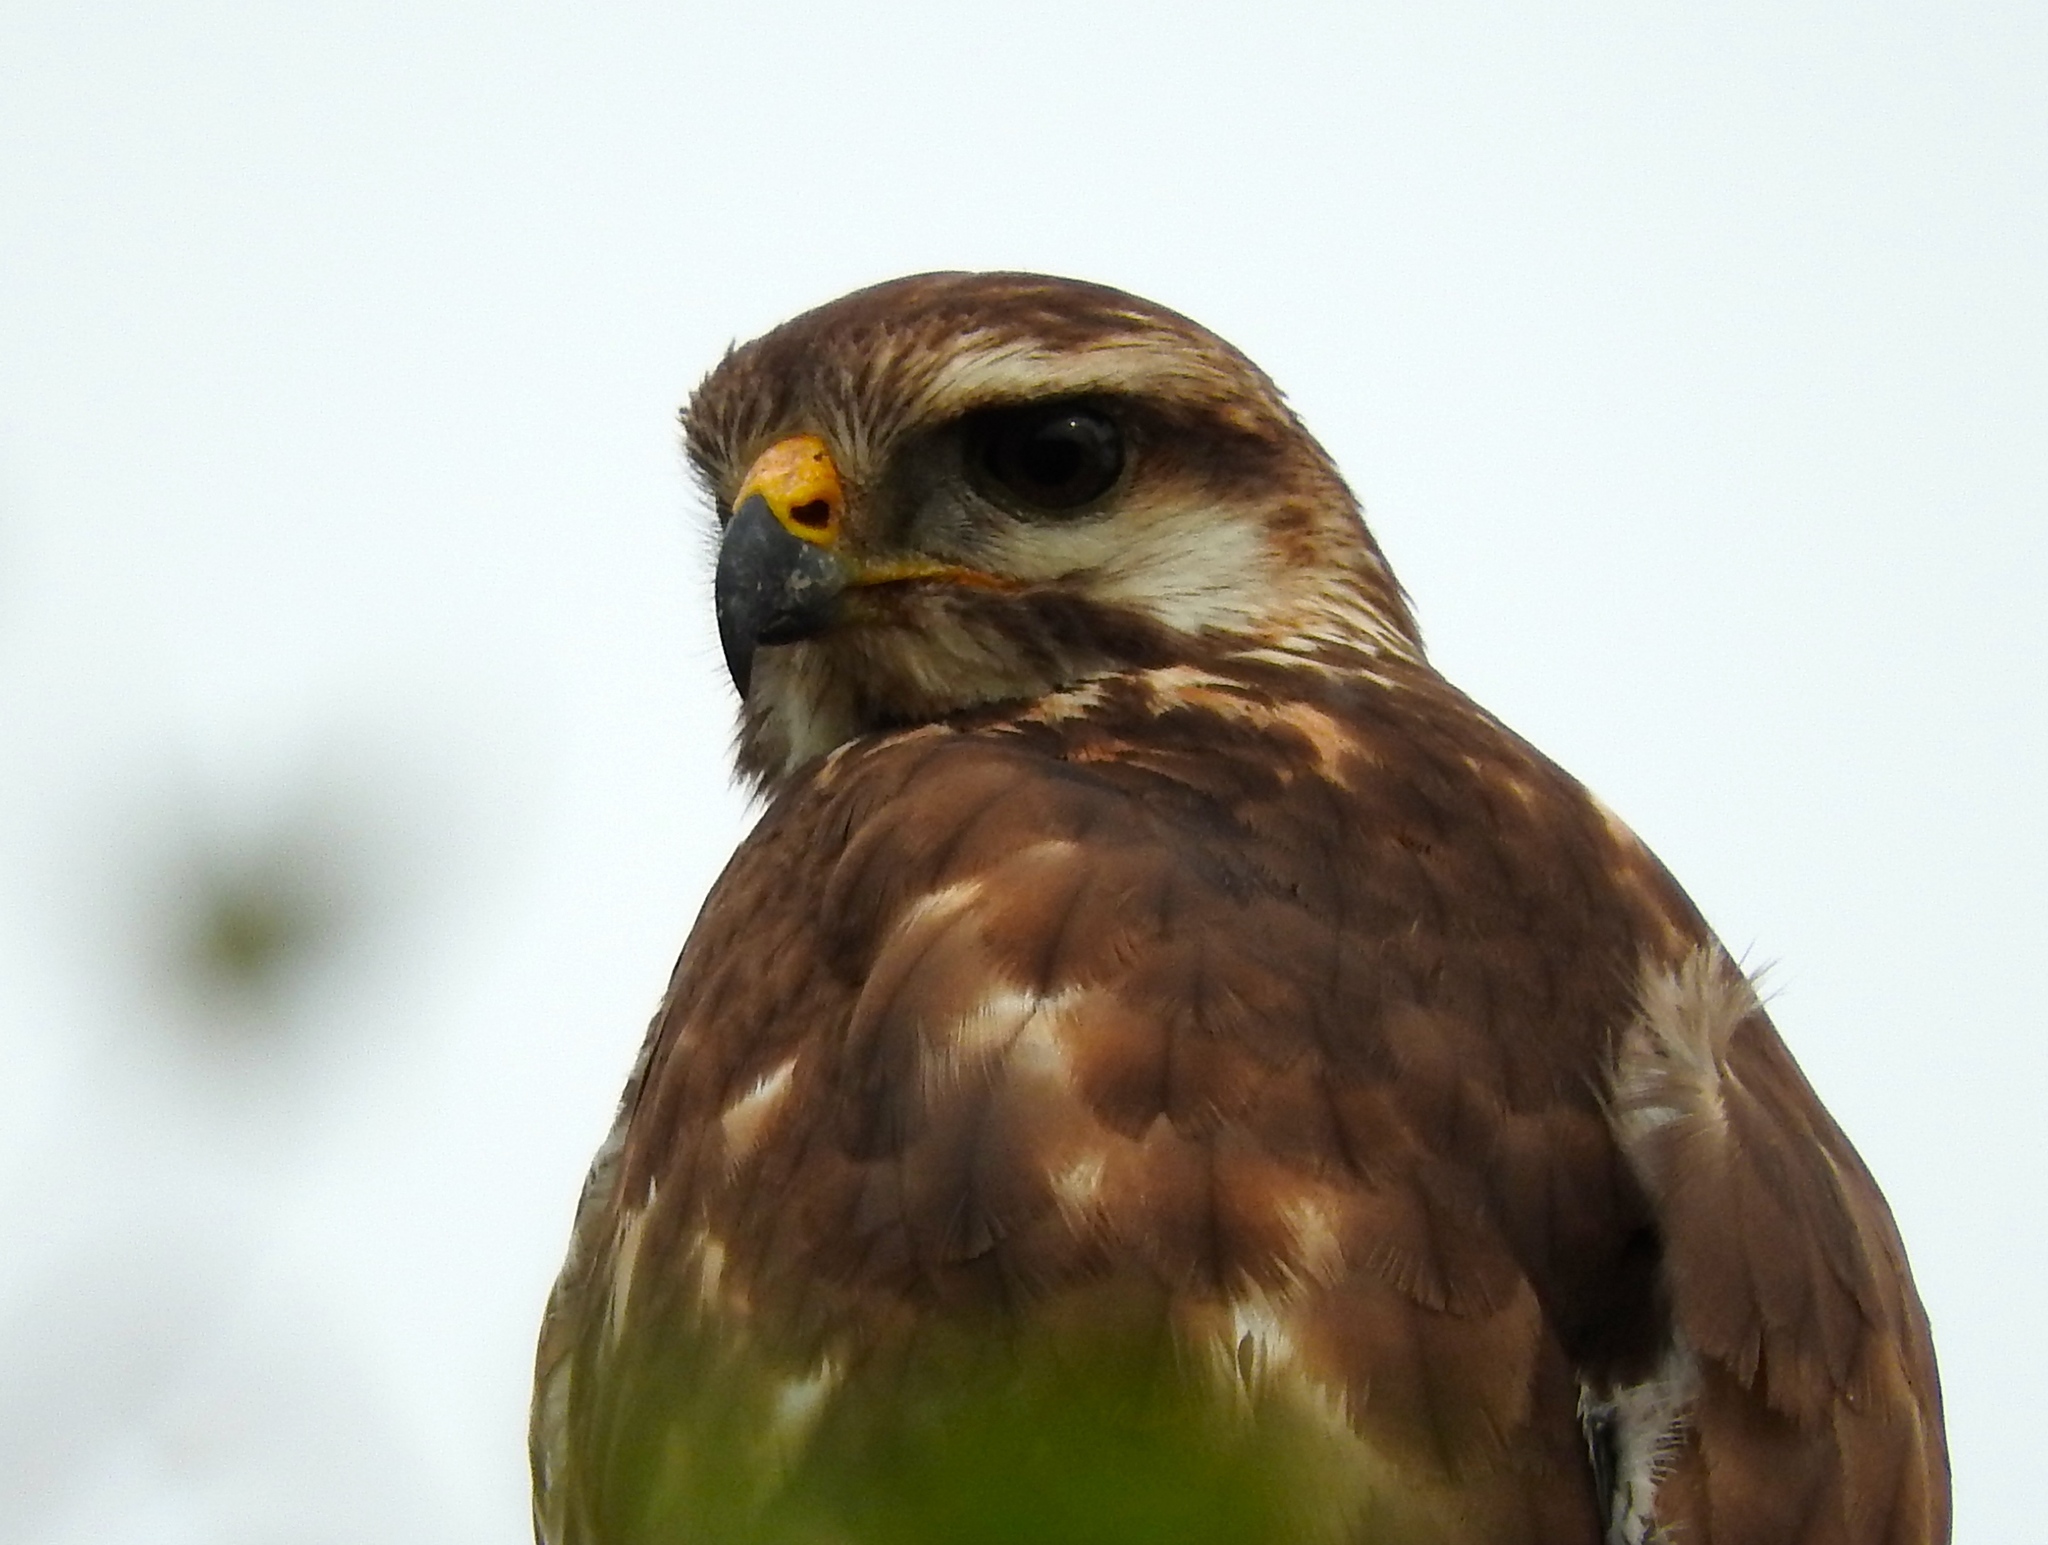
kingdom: Animalia
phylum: Chordata
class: Aves
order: Accipitriformes
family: Accipitridae
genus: Buteo
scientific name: Buteo nitidus
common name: Grey-lined hawk
